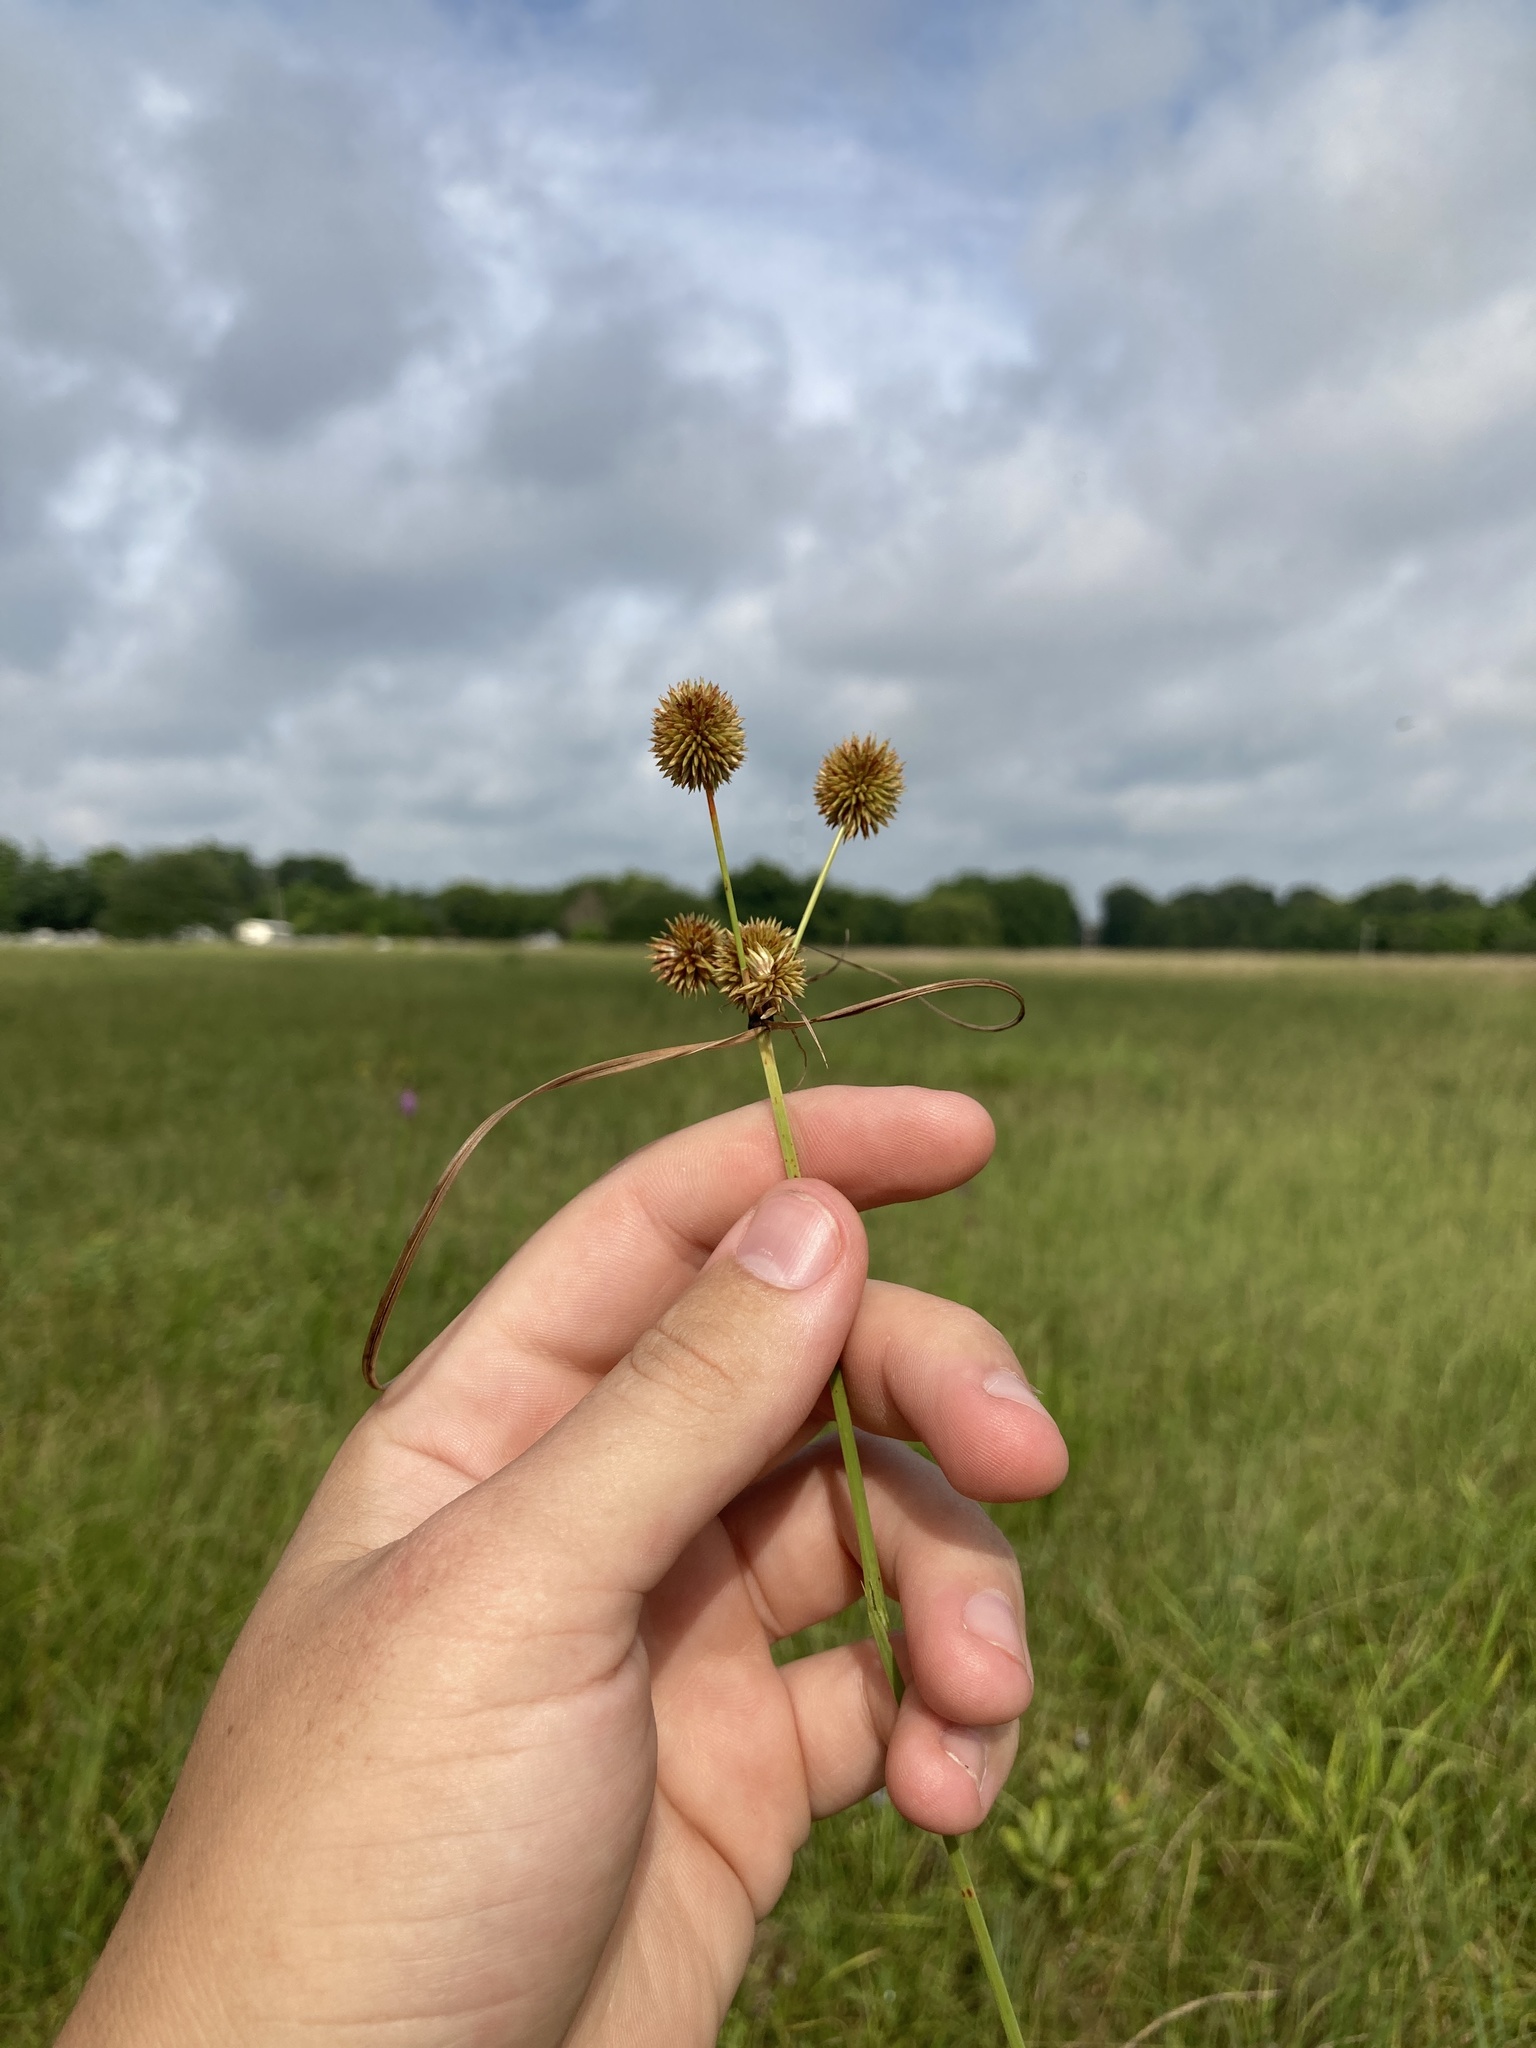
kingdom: Plantae
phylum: Tracheophyta
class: Liliopsida
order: Poales
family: Cyperaceae
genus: Cyperus
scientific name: Cyperus echinatus
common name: Teasel sedge
